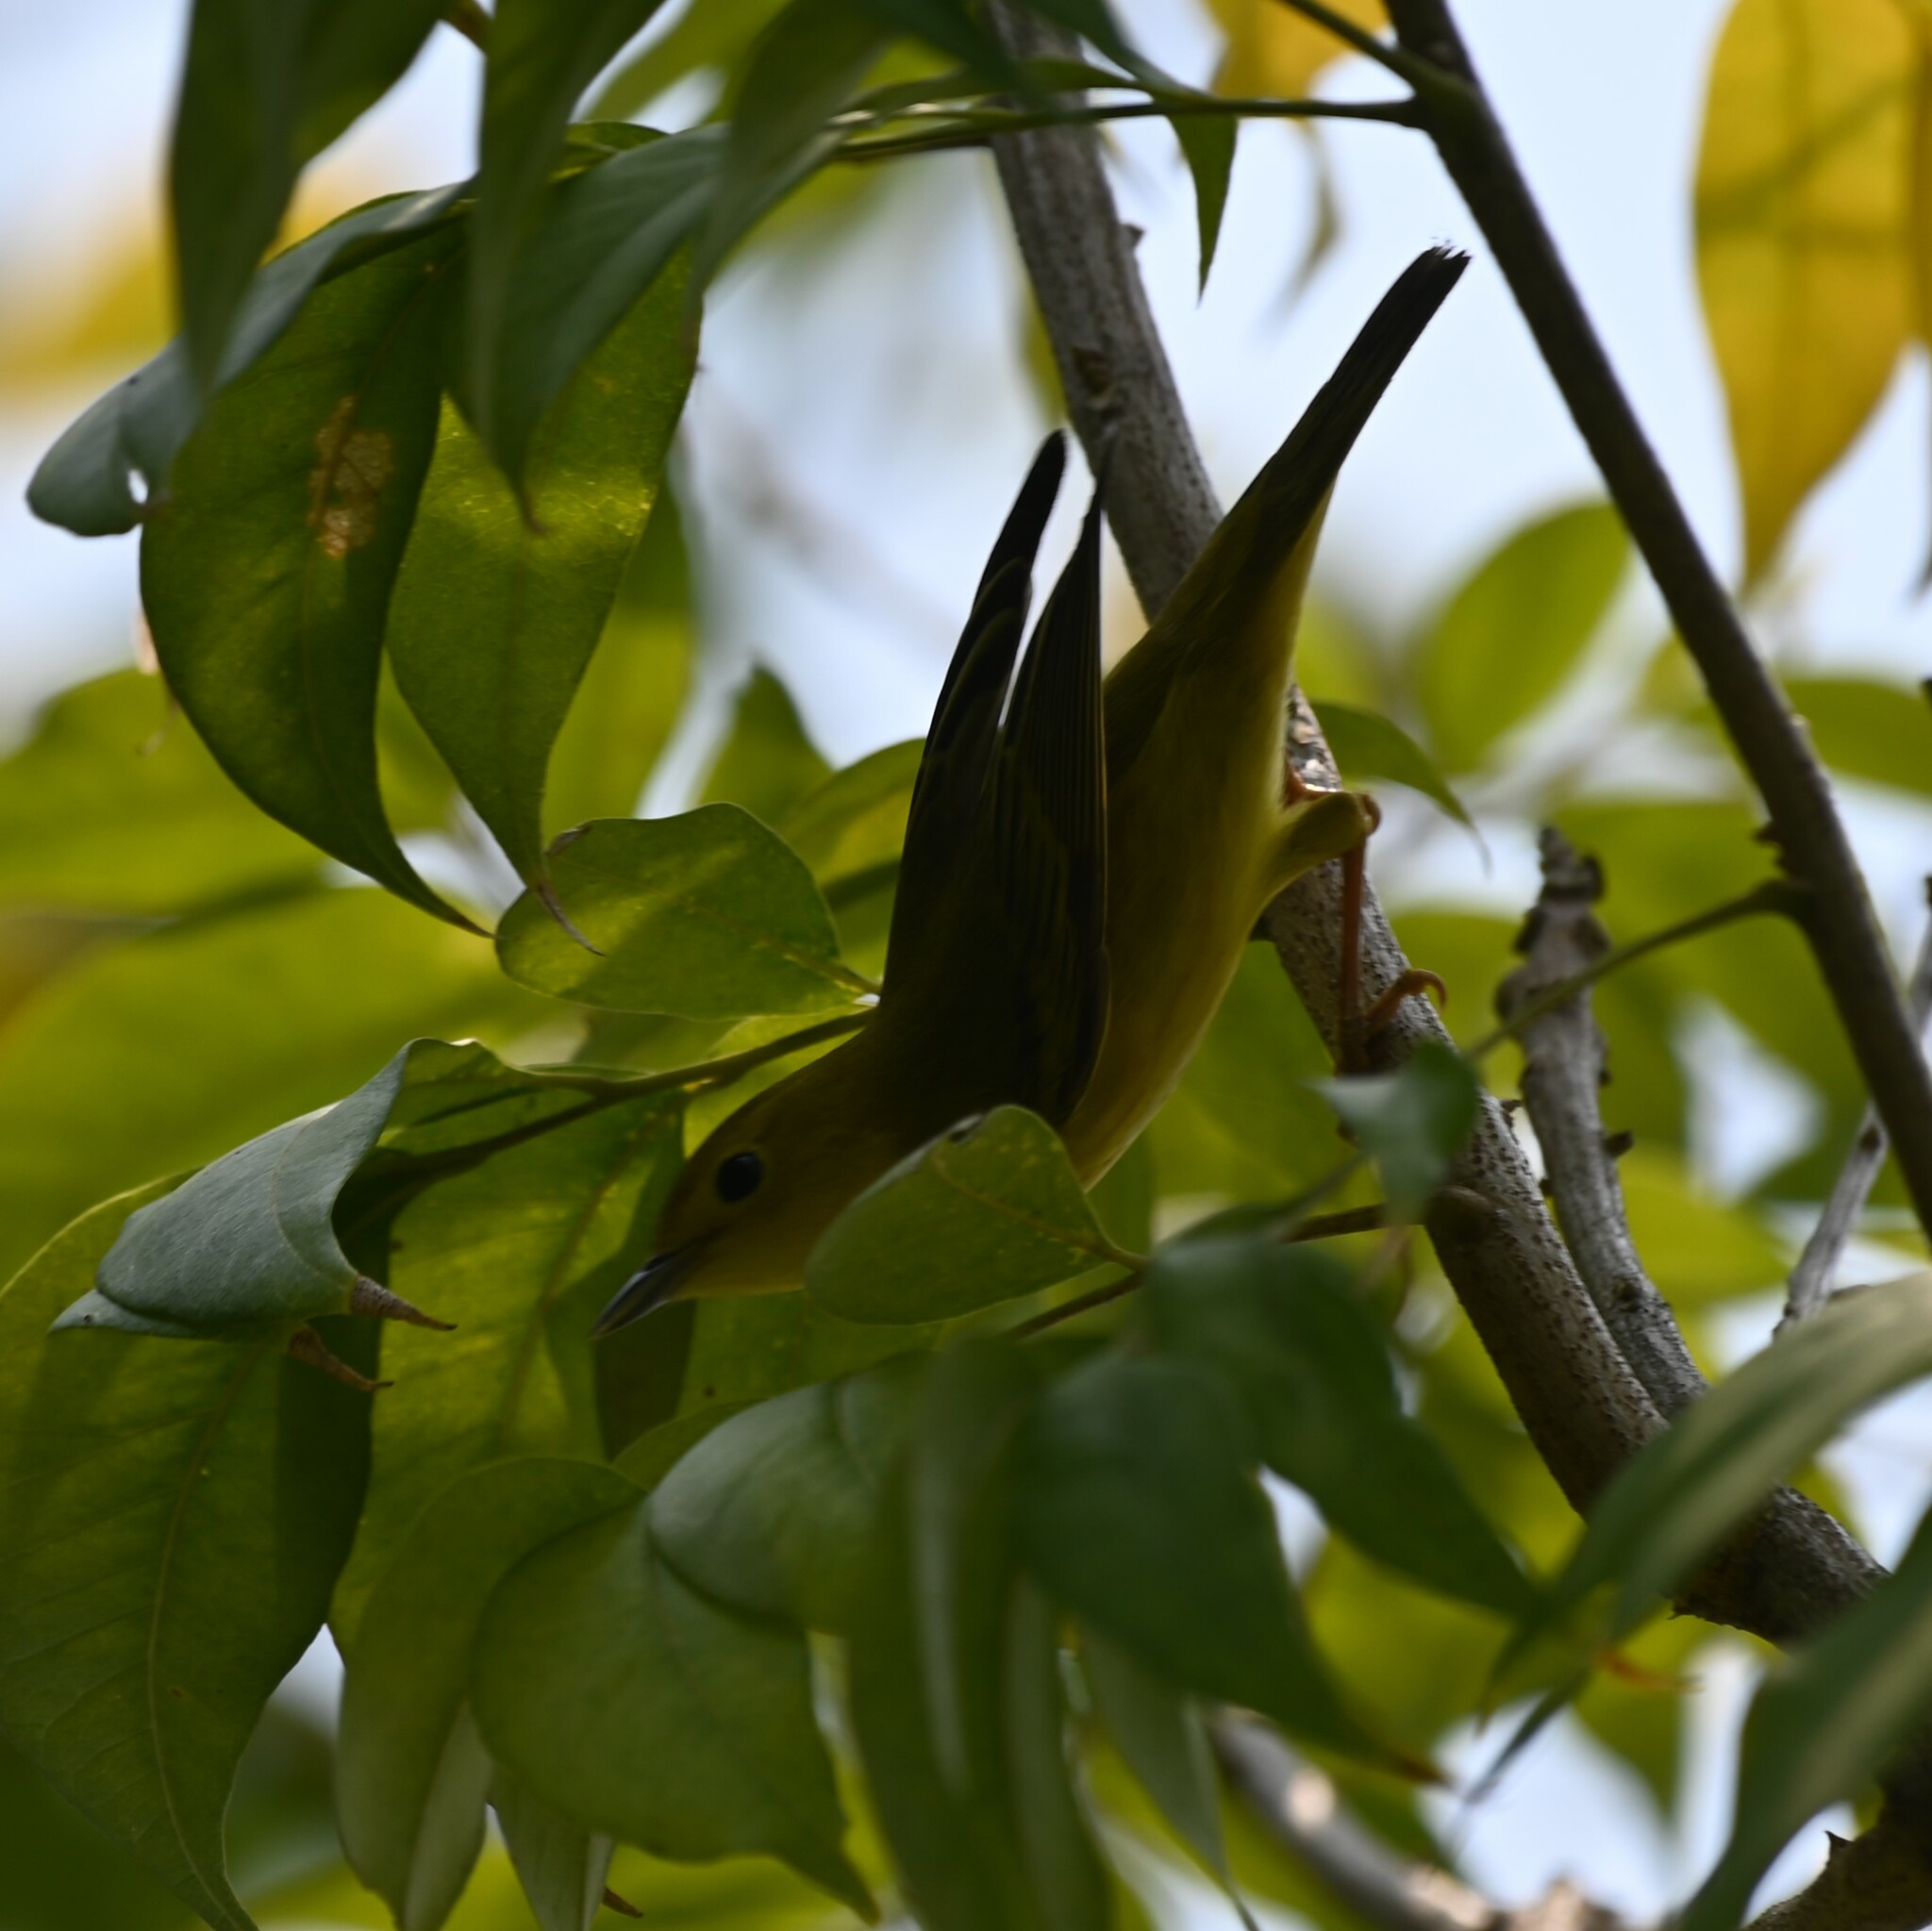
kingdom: Animalia
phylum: Chordata
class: Aves
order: Passeriformes
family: Parulidae
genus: Setophaga
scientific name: Setophaga petechia
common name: Yellow warbler
